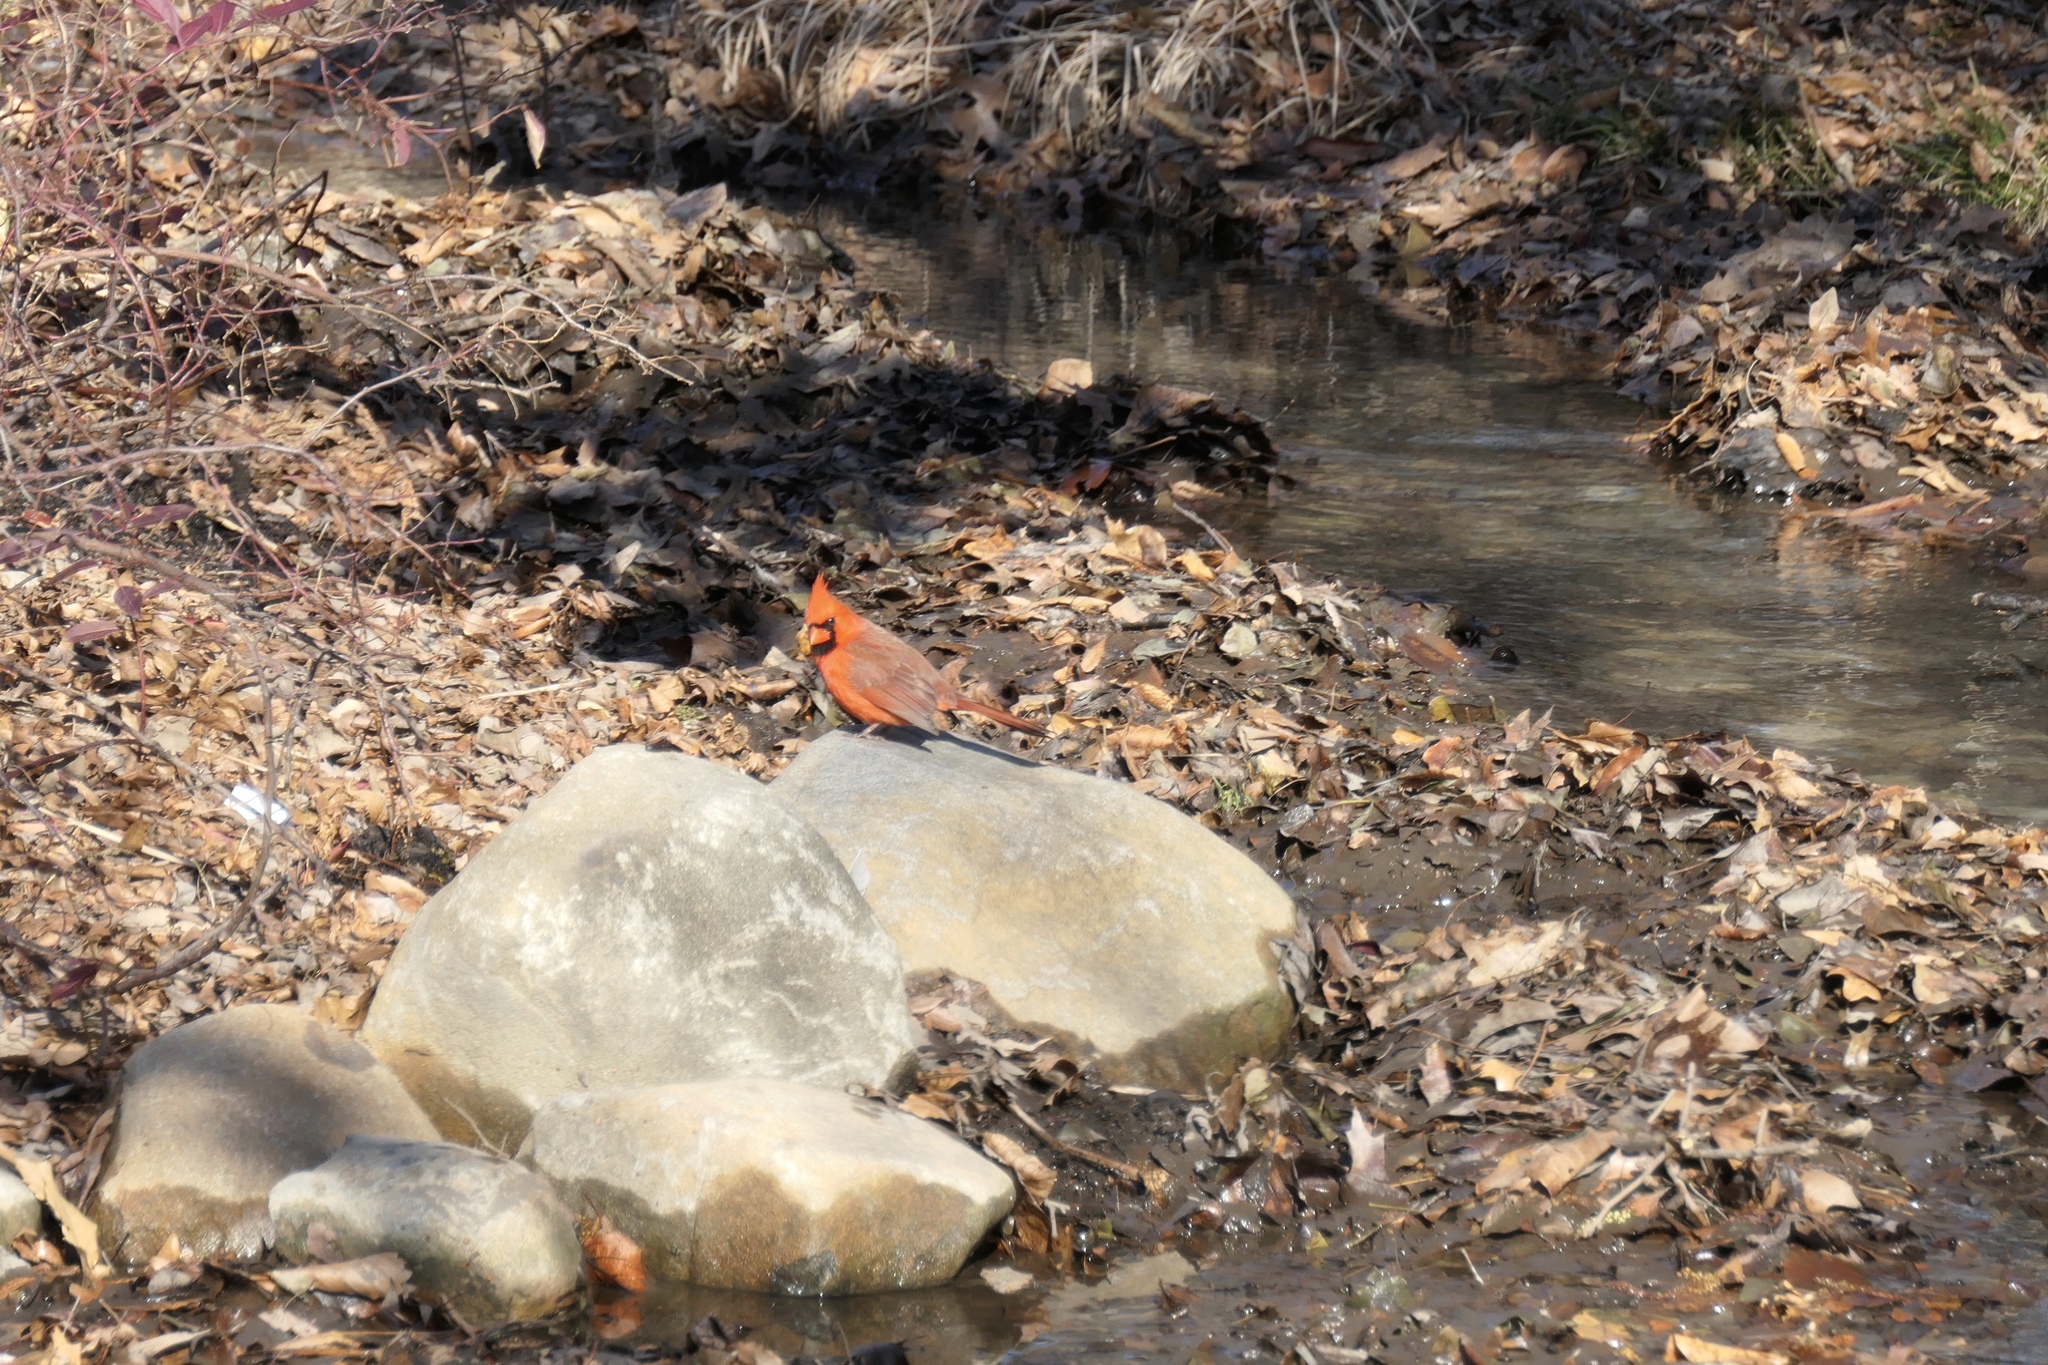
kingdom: Animalia
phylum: Chordata
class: Aves
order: Passeriformes
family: Cardinalidae
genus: Cardinalis
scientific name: Cardinalis cardinalis
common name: Northern cardinal
